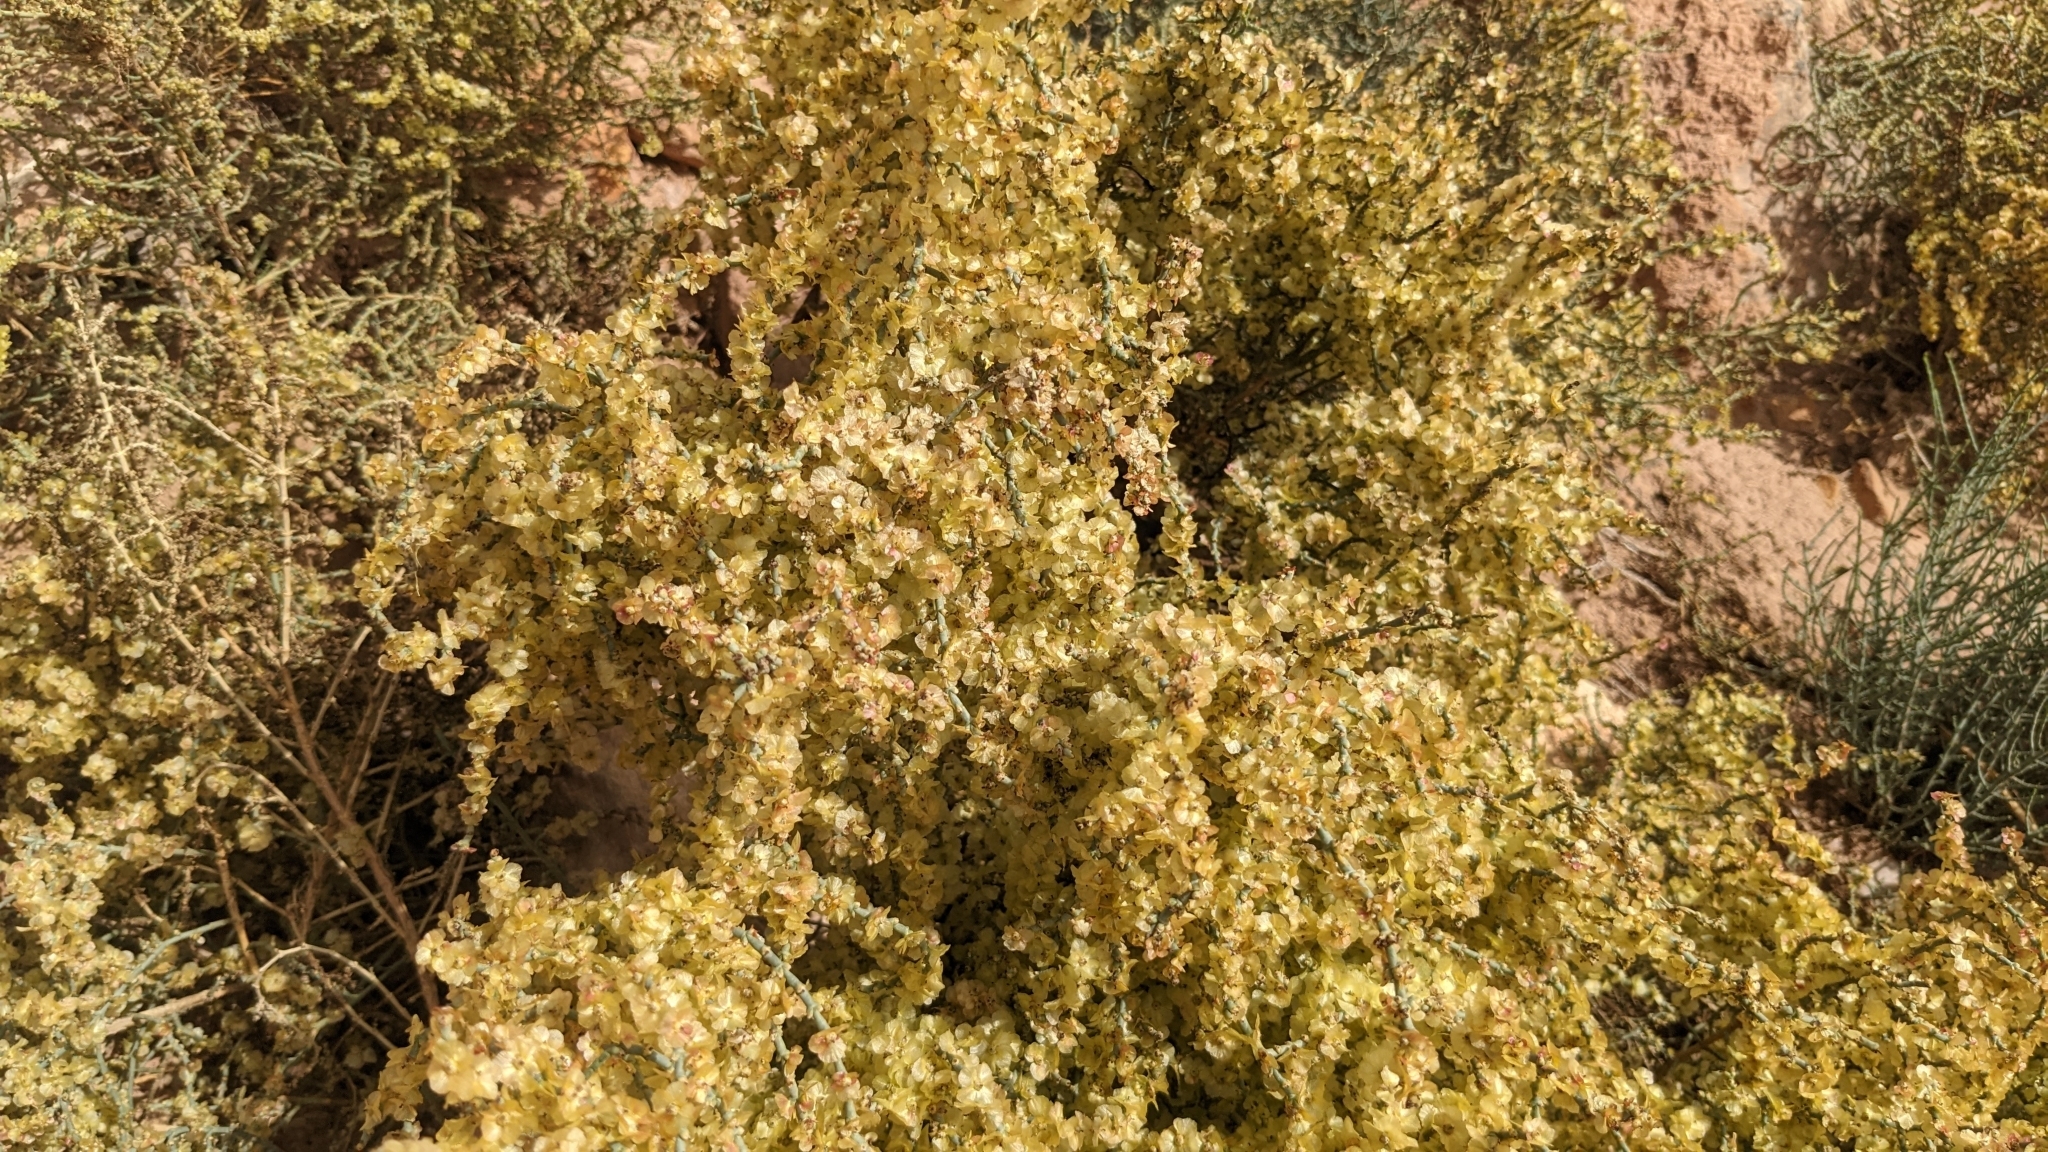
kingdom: Plantae
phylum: Tracheophyta
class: Magnoliopsida
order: Caryophyllales
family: Amaranthaceae
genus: Haloxylon
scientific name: Haloxylon
